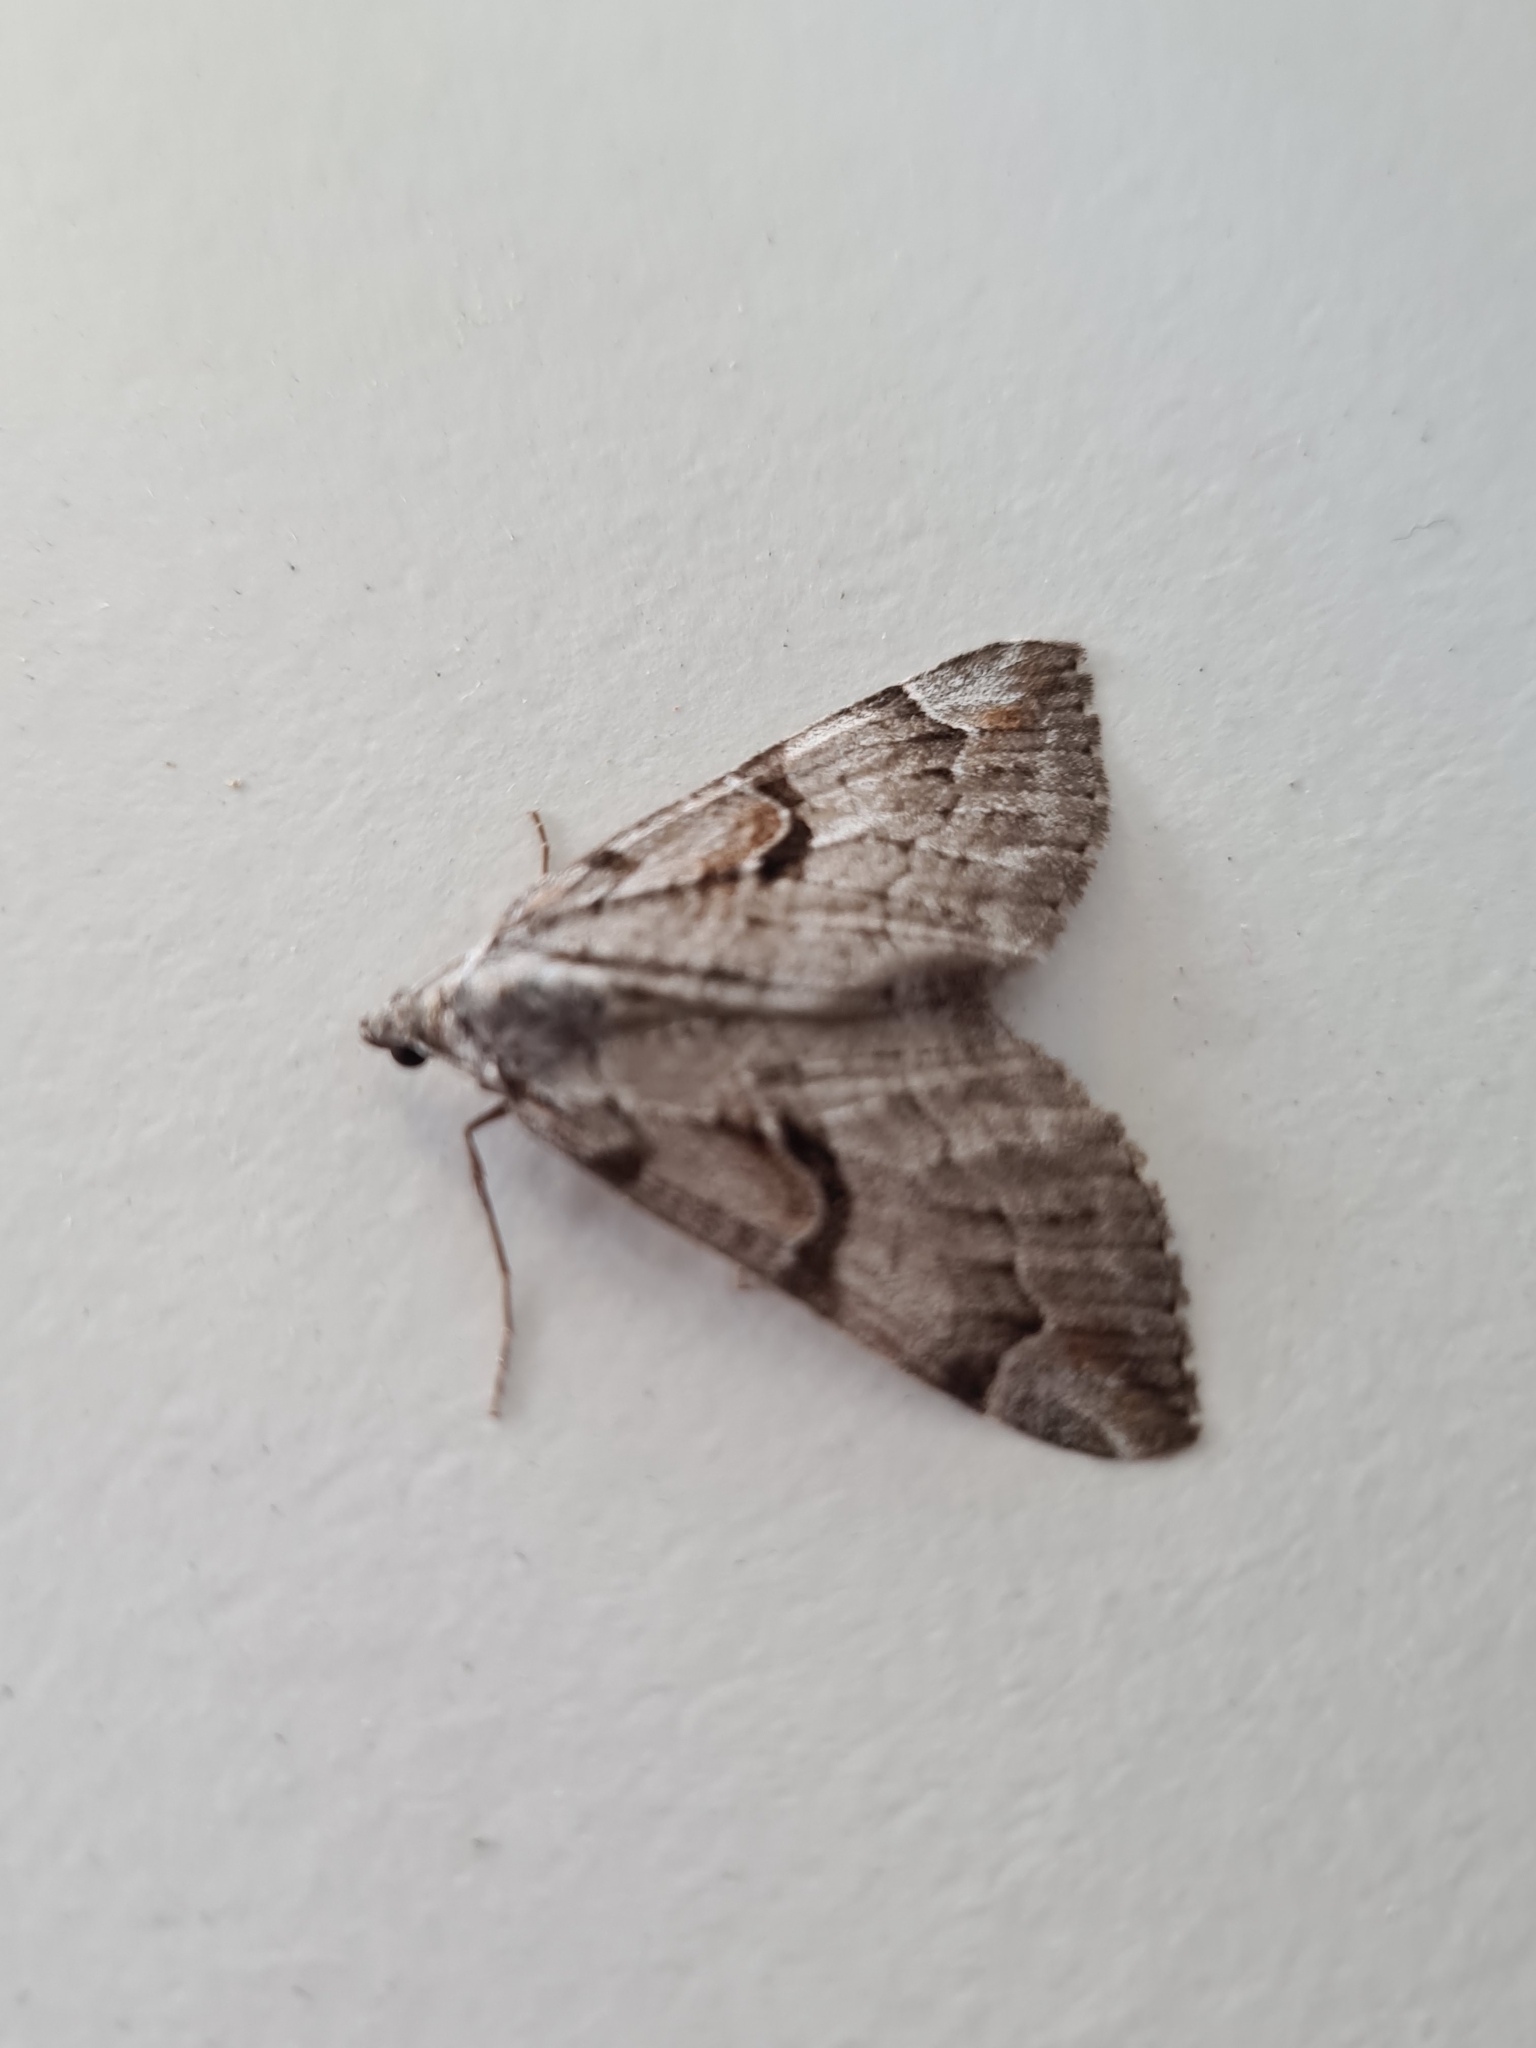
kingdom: Animalia
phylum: Arthropoda
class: Insecta
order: Lepidoptera
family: Geometridae
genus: Aplocera
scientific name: Aplocera praeformata
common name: Purple treble-bar
